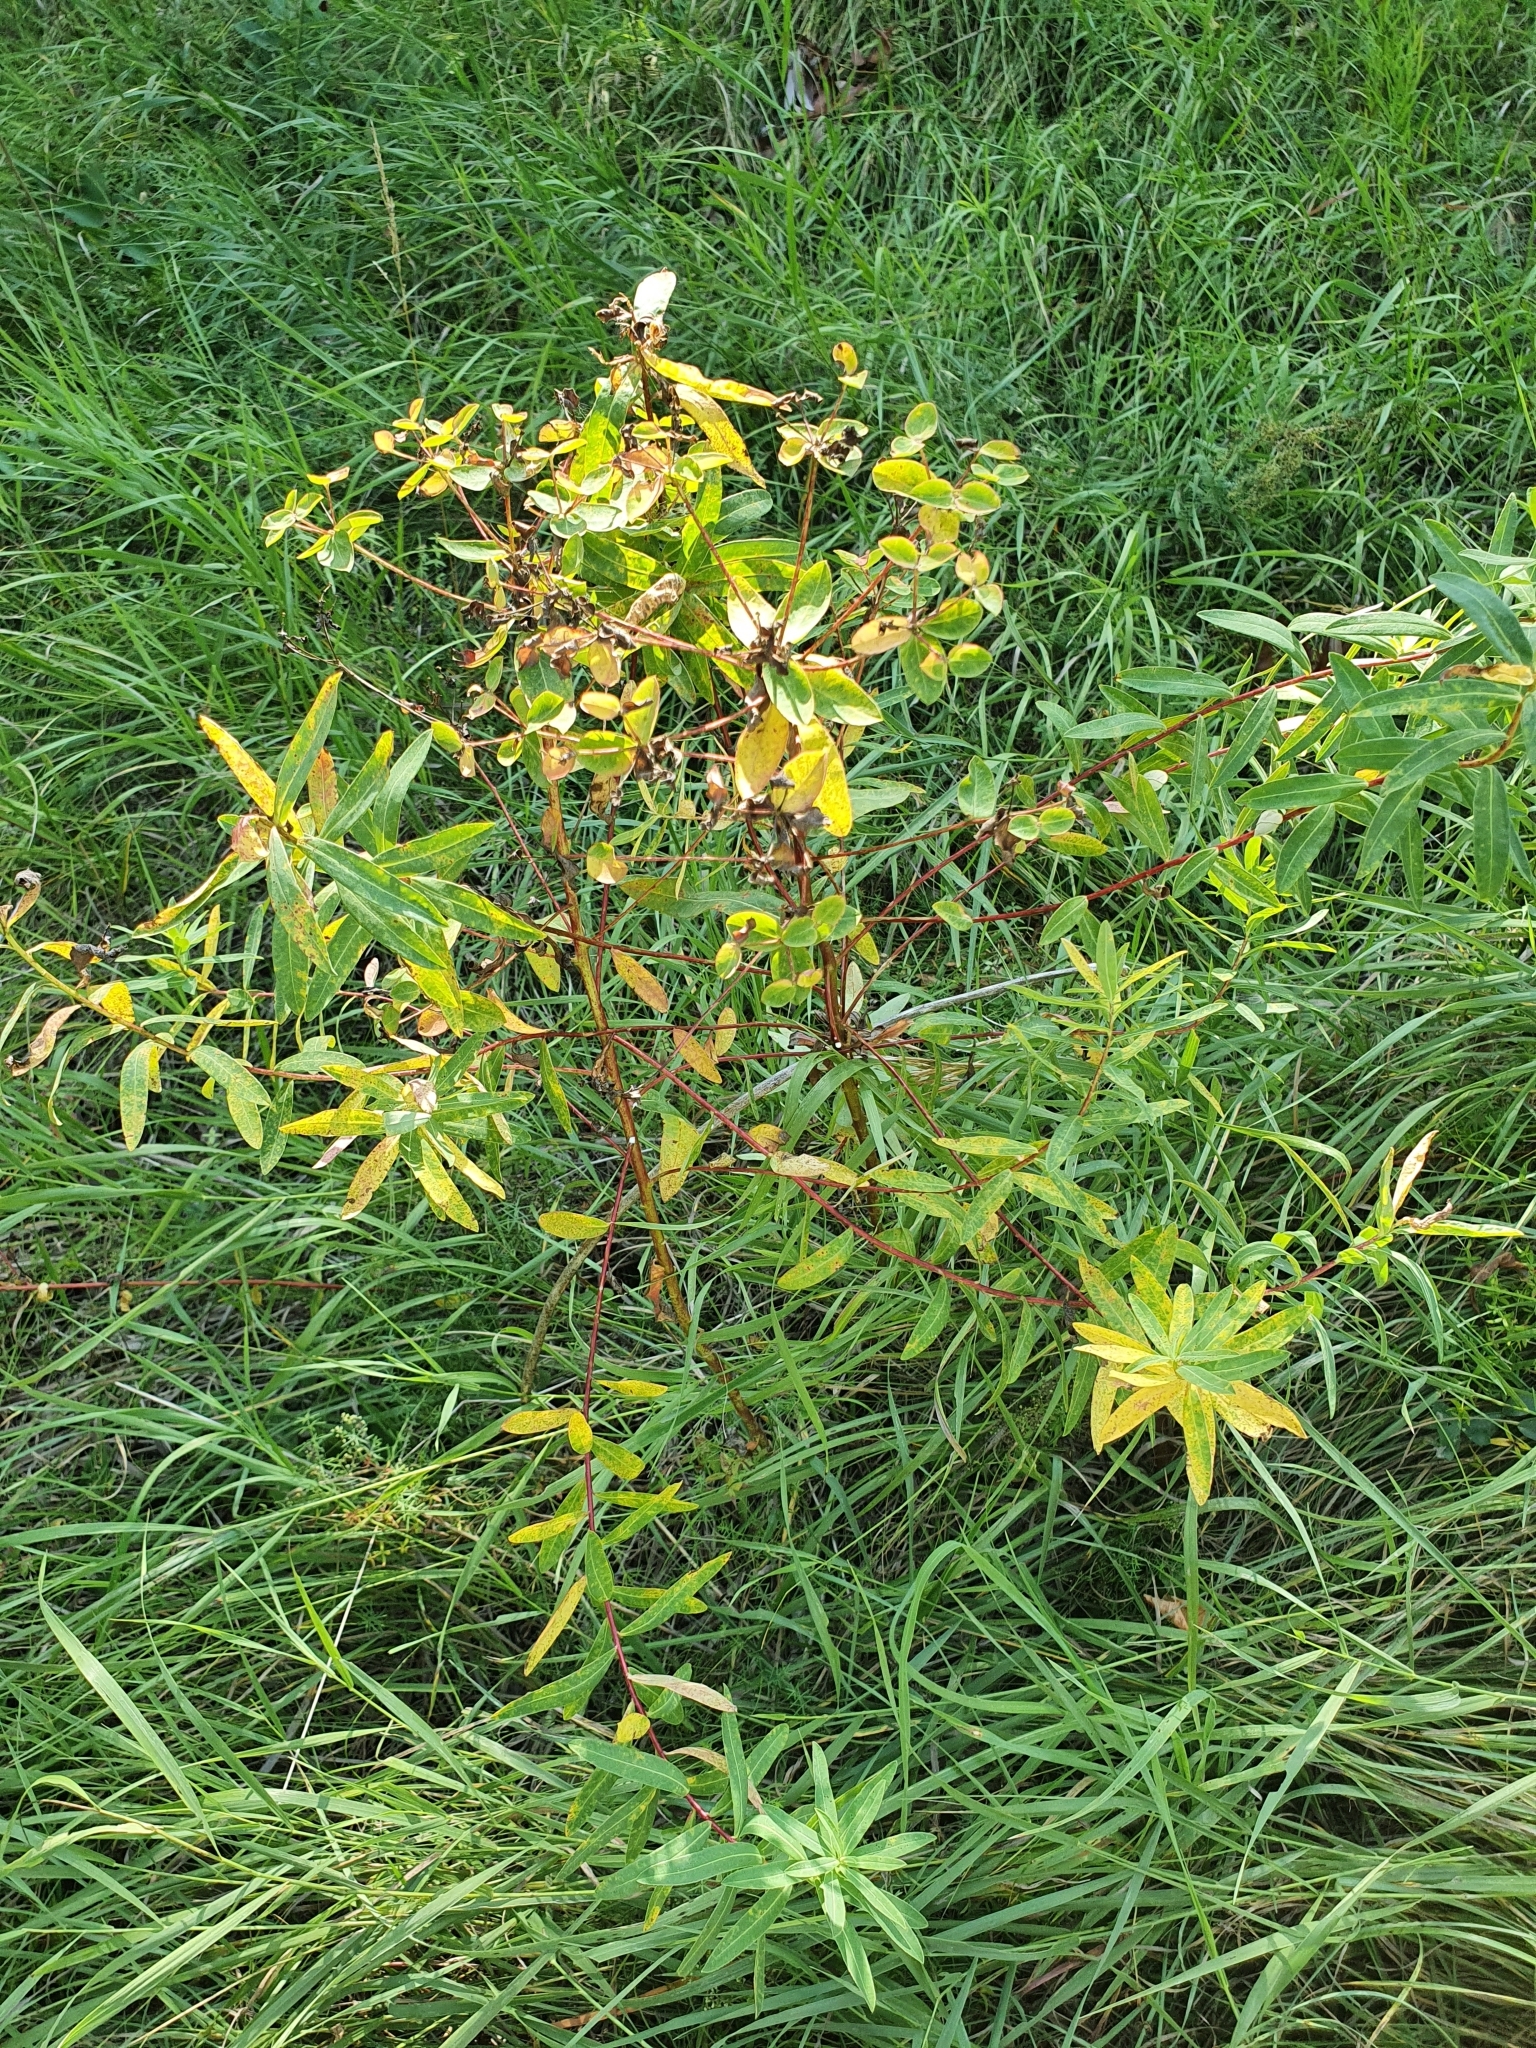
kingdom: Plantae
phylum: Tracheophyta
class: Magnoliopsida
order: Malpighiales
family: Euphorbiaceae
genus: Euphorbia
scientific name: Euphorbia palustris
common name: Marsh spurge
